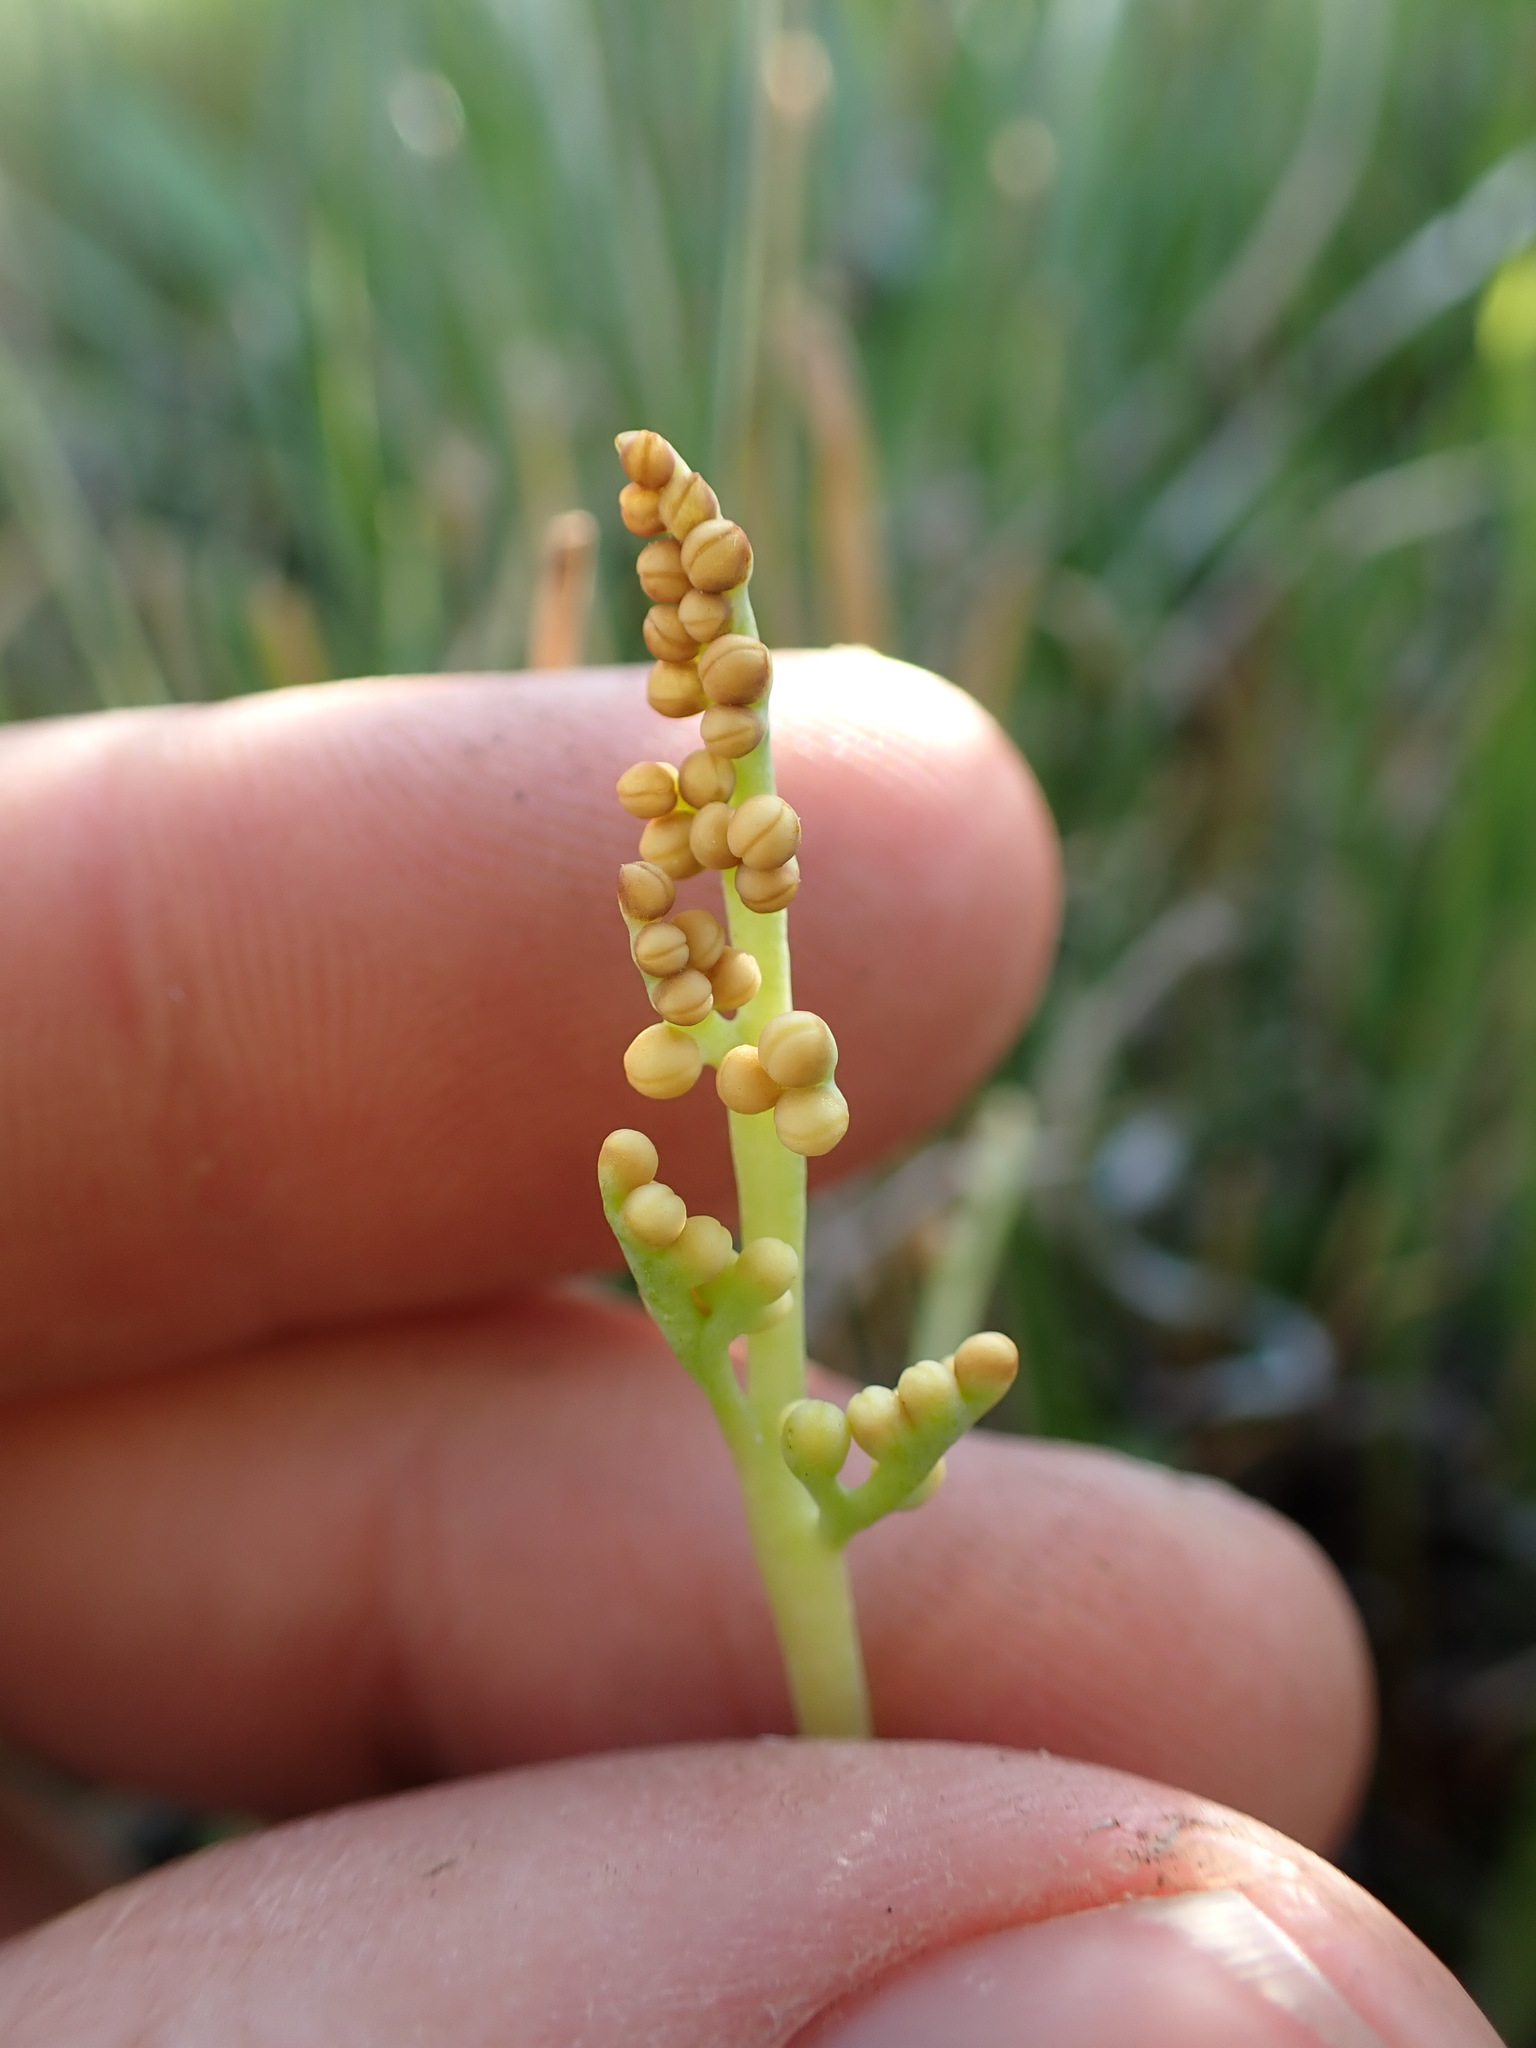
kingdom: Plantae
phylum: Tracheophyta
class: Polypodiopsida
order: Ophioglossales
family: Ophioglossaceae
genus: Botrychium
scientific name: Botrychium simplex
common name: Least moonwort
